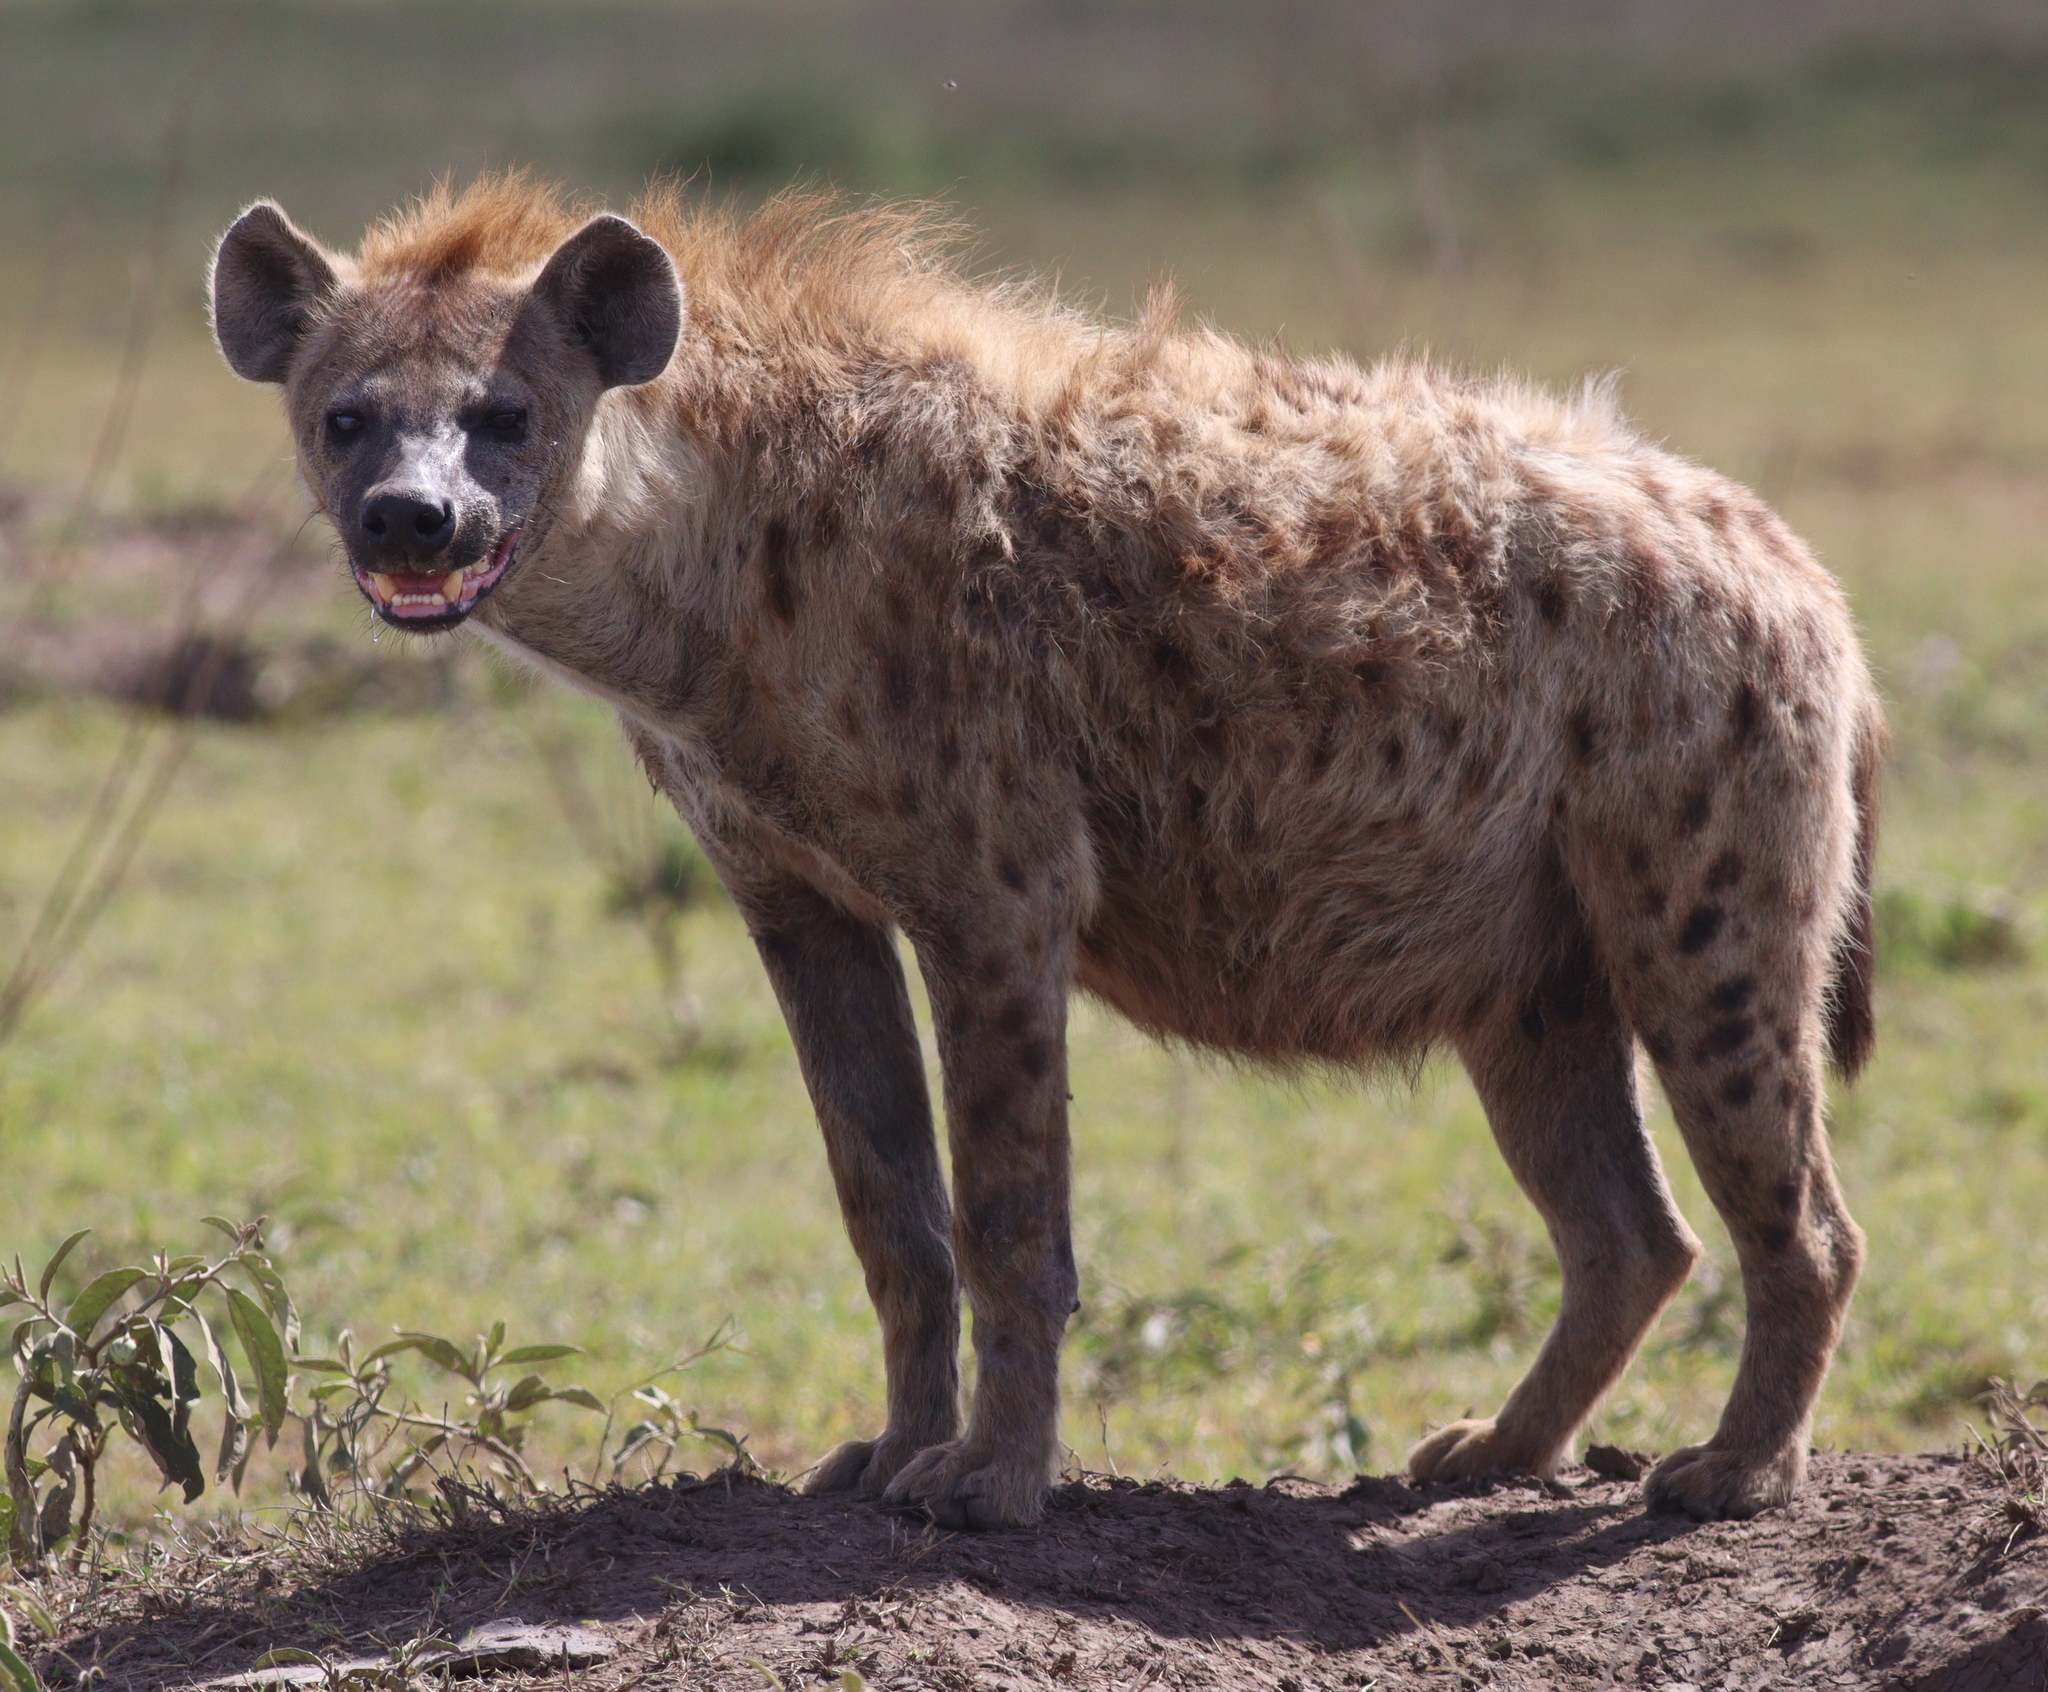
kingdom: Animalia
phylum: Chordata
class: Mammalia
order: Carnivora
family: Hyaenidae
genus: Crocuta
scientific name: Crocuta crocuta
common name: Spotted hyaena
